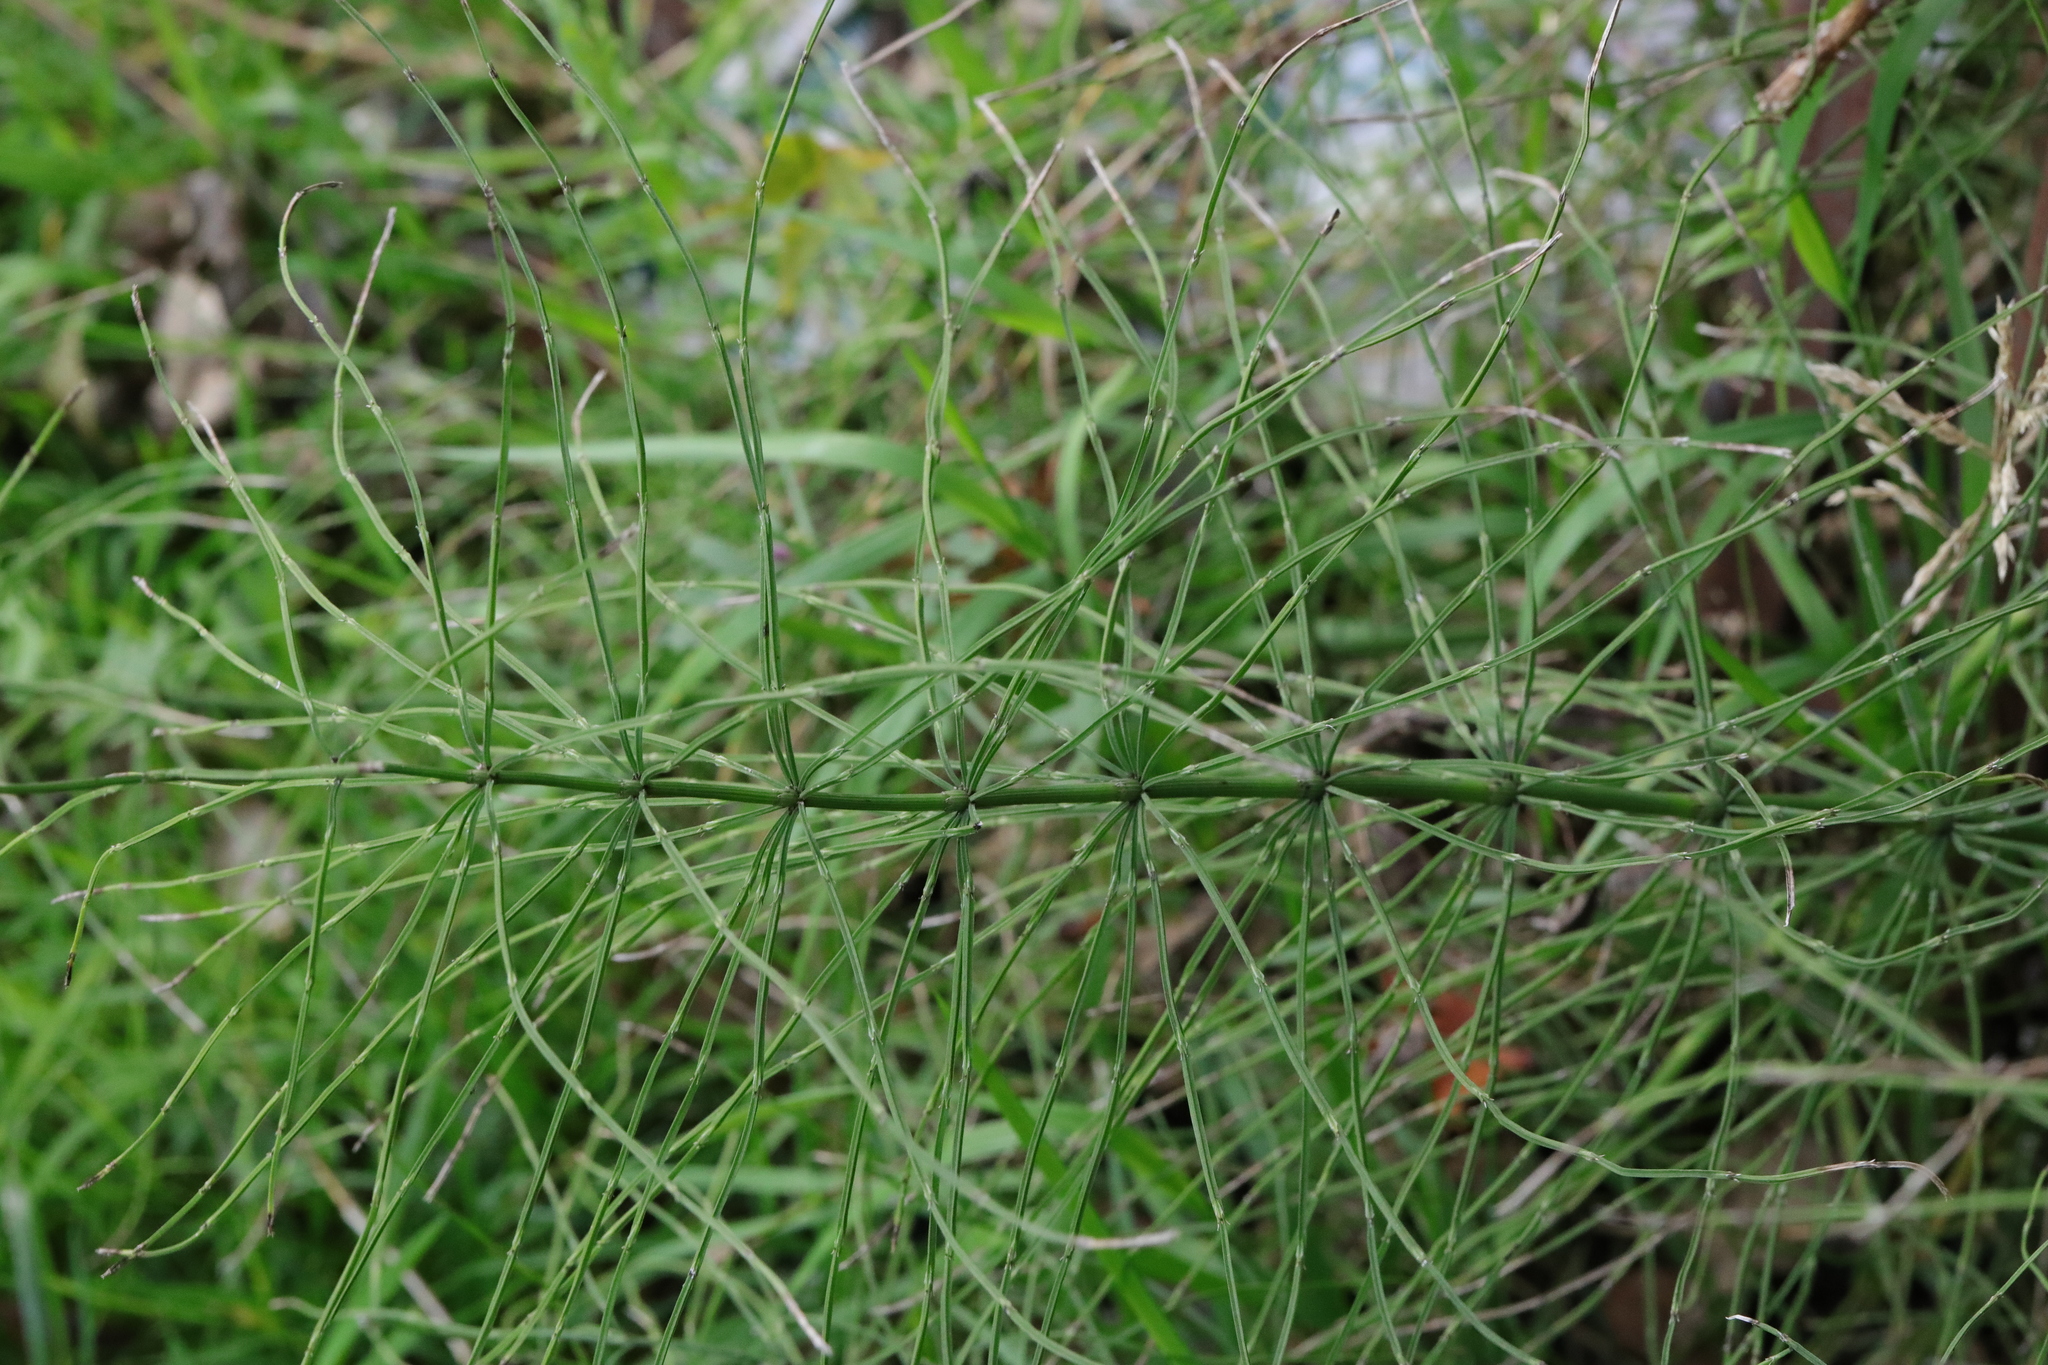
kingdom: Plantae
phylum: Tracheophyta
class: Polypodiopsida
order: Equisetales
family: Equisetaceae
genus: Equisetum
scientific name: Equisetum arvense
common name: Field horsetail
